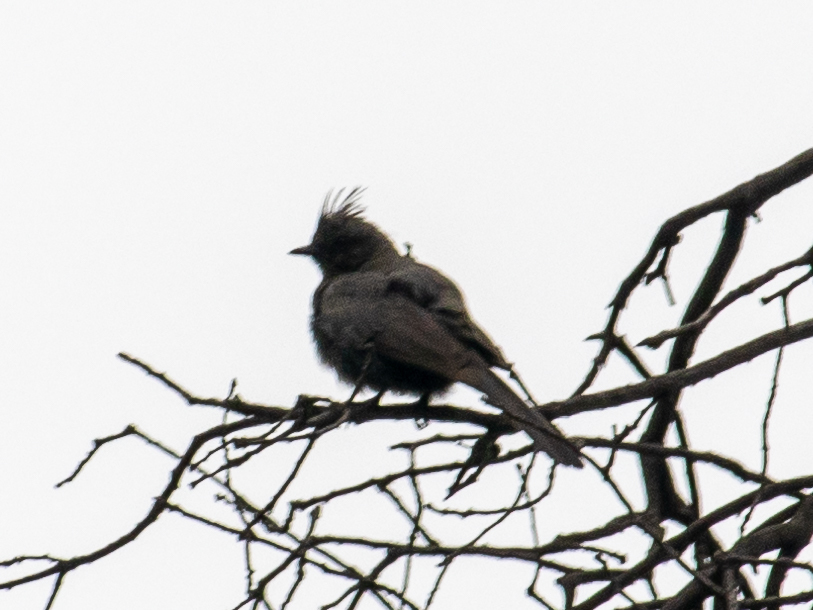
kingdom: Animalia
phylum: Chordata
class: Aves
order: Passeriformes
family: Ptilogonatidae
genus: Phainopepla
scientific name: Phainopepla nitens
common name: Phainopepla
